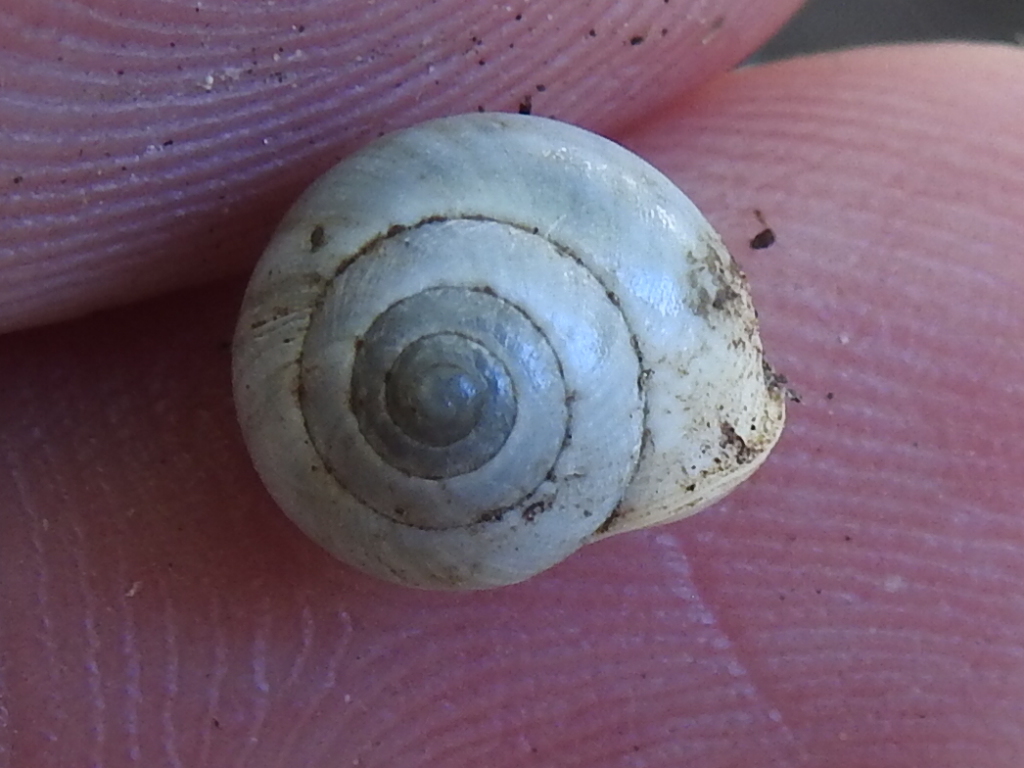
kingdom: Animalia
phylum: Mollusca
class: Gastropoda
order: Cycloneritida
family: Helicinidae
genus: Helicina
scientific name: Helicina orbiculata
